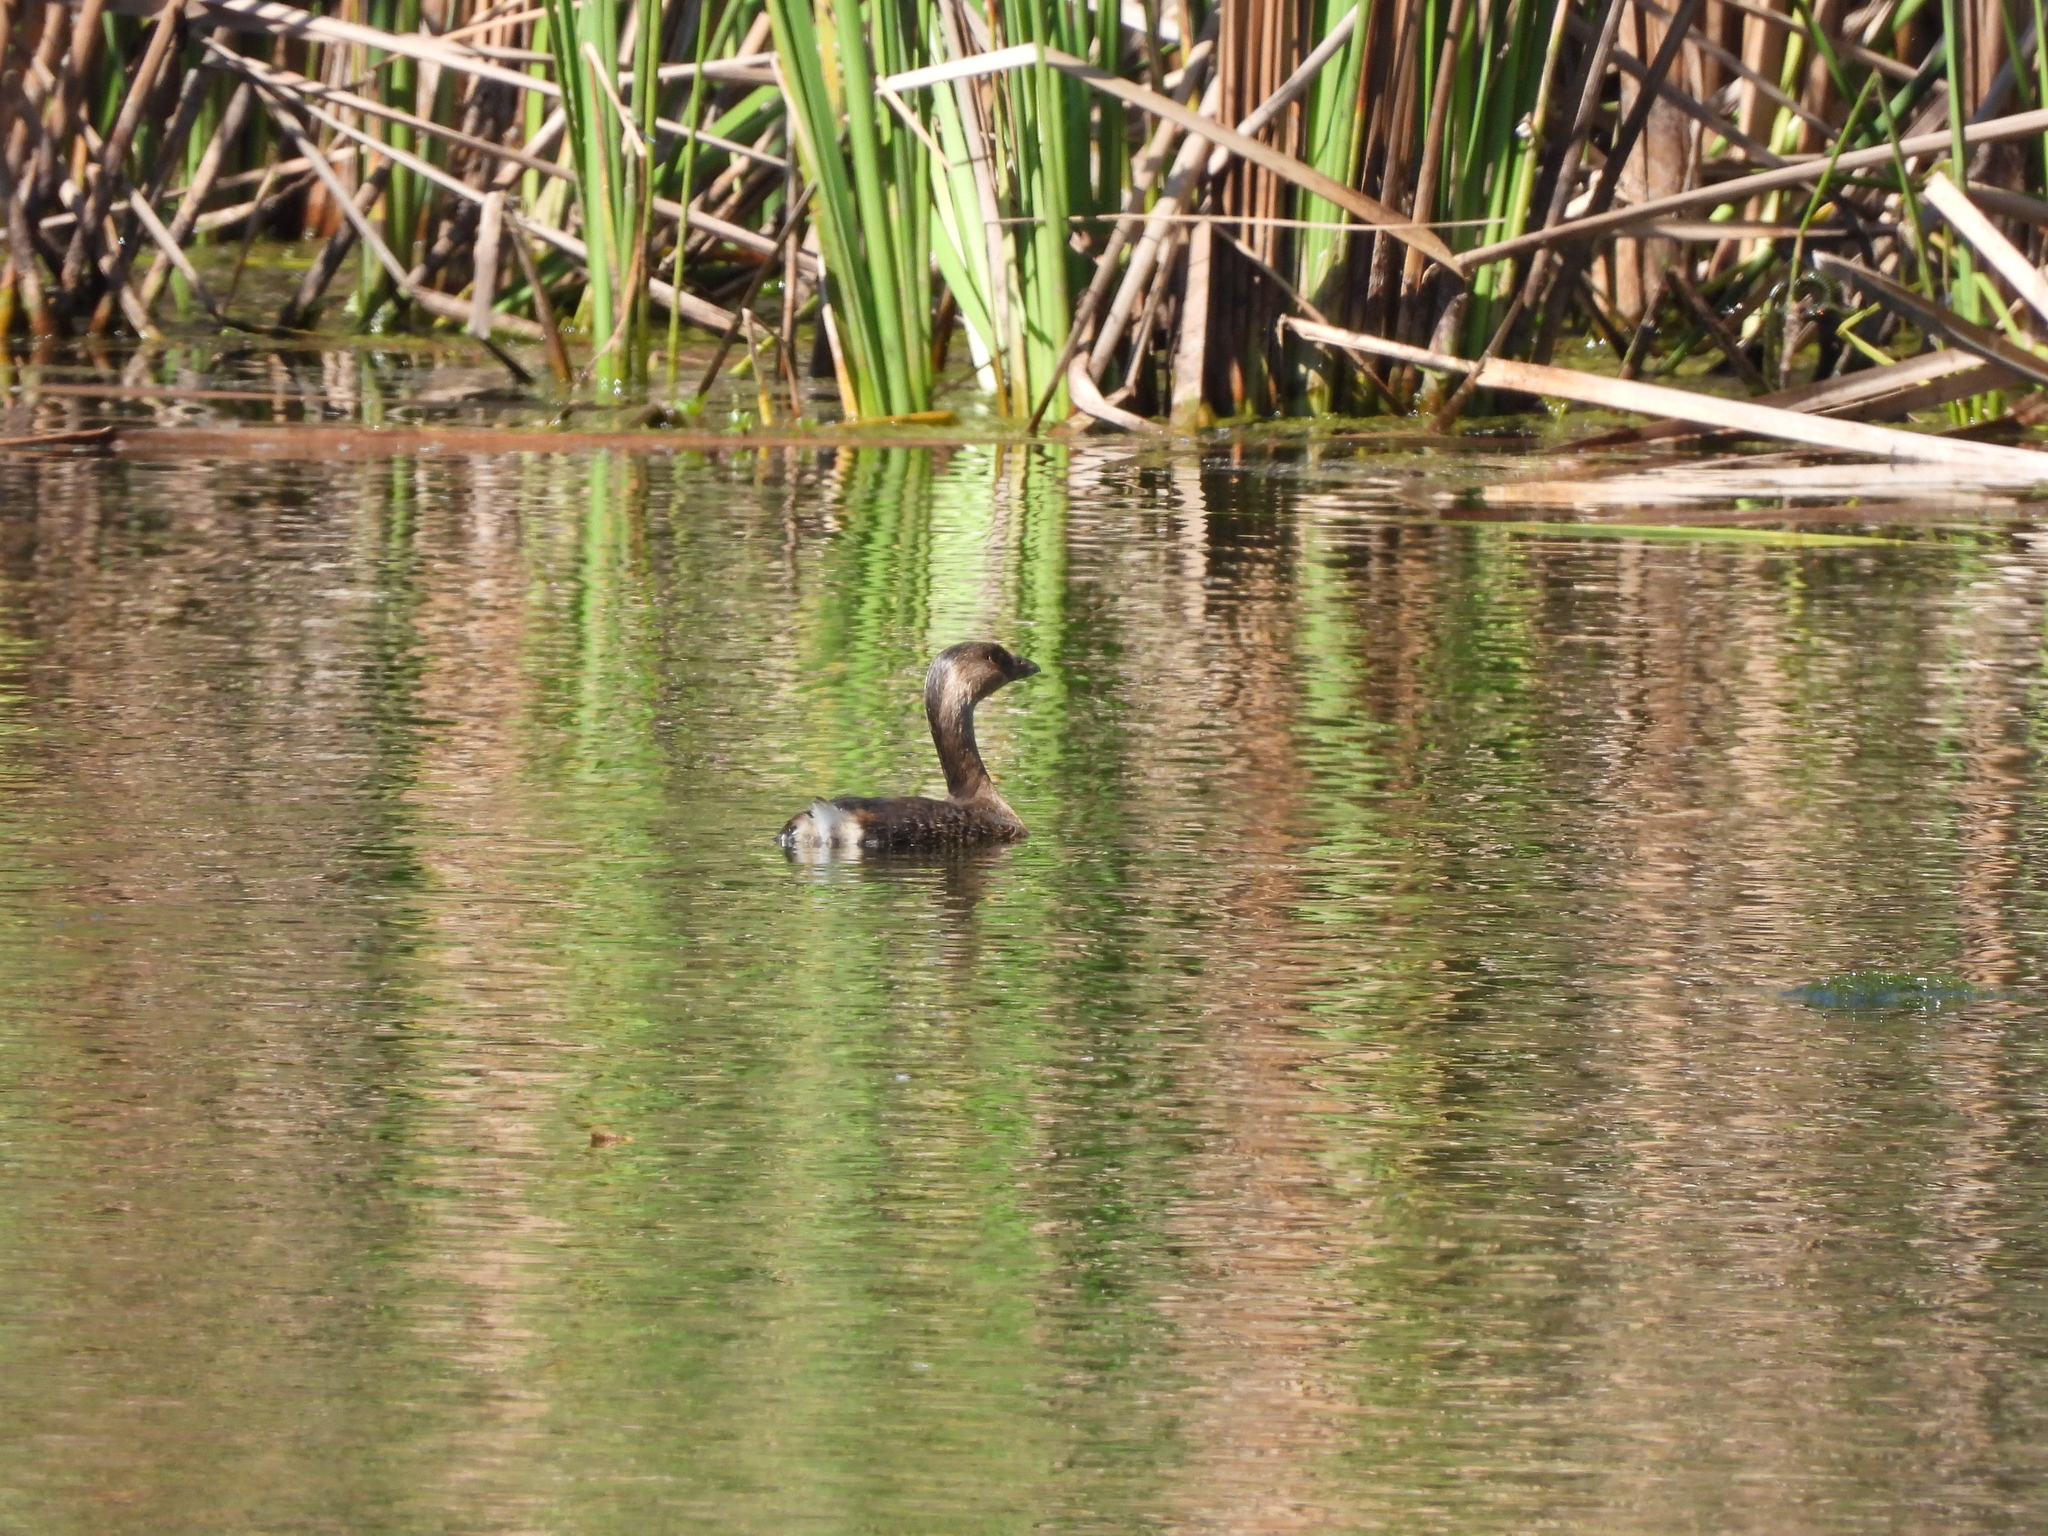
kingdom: Animalia
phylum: Chordata
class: Aves
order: Podicipediformes
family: Podicipedidae
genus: Podilymbus
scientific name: Podilymbus podiceps
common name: Pied-billed grebe
